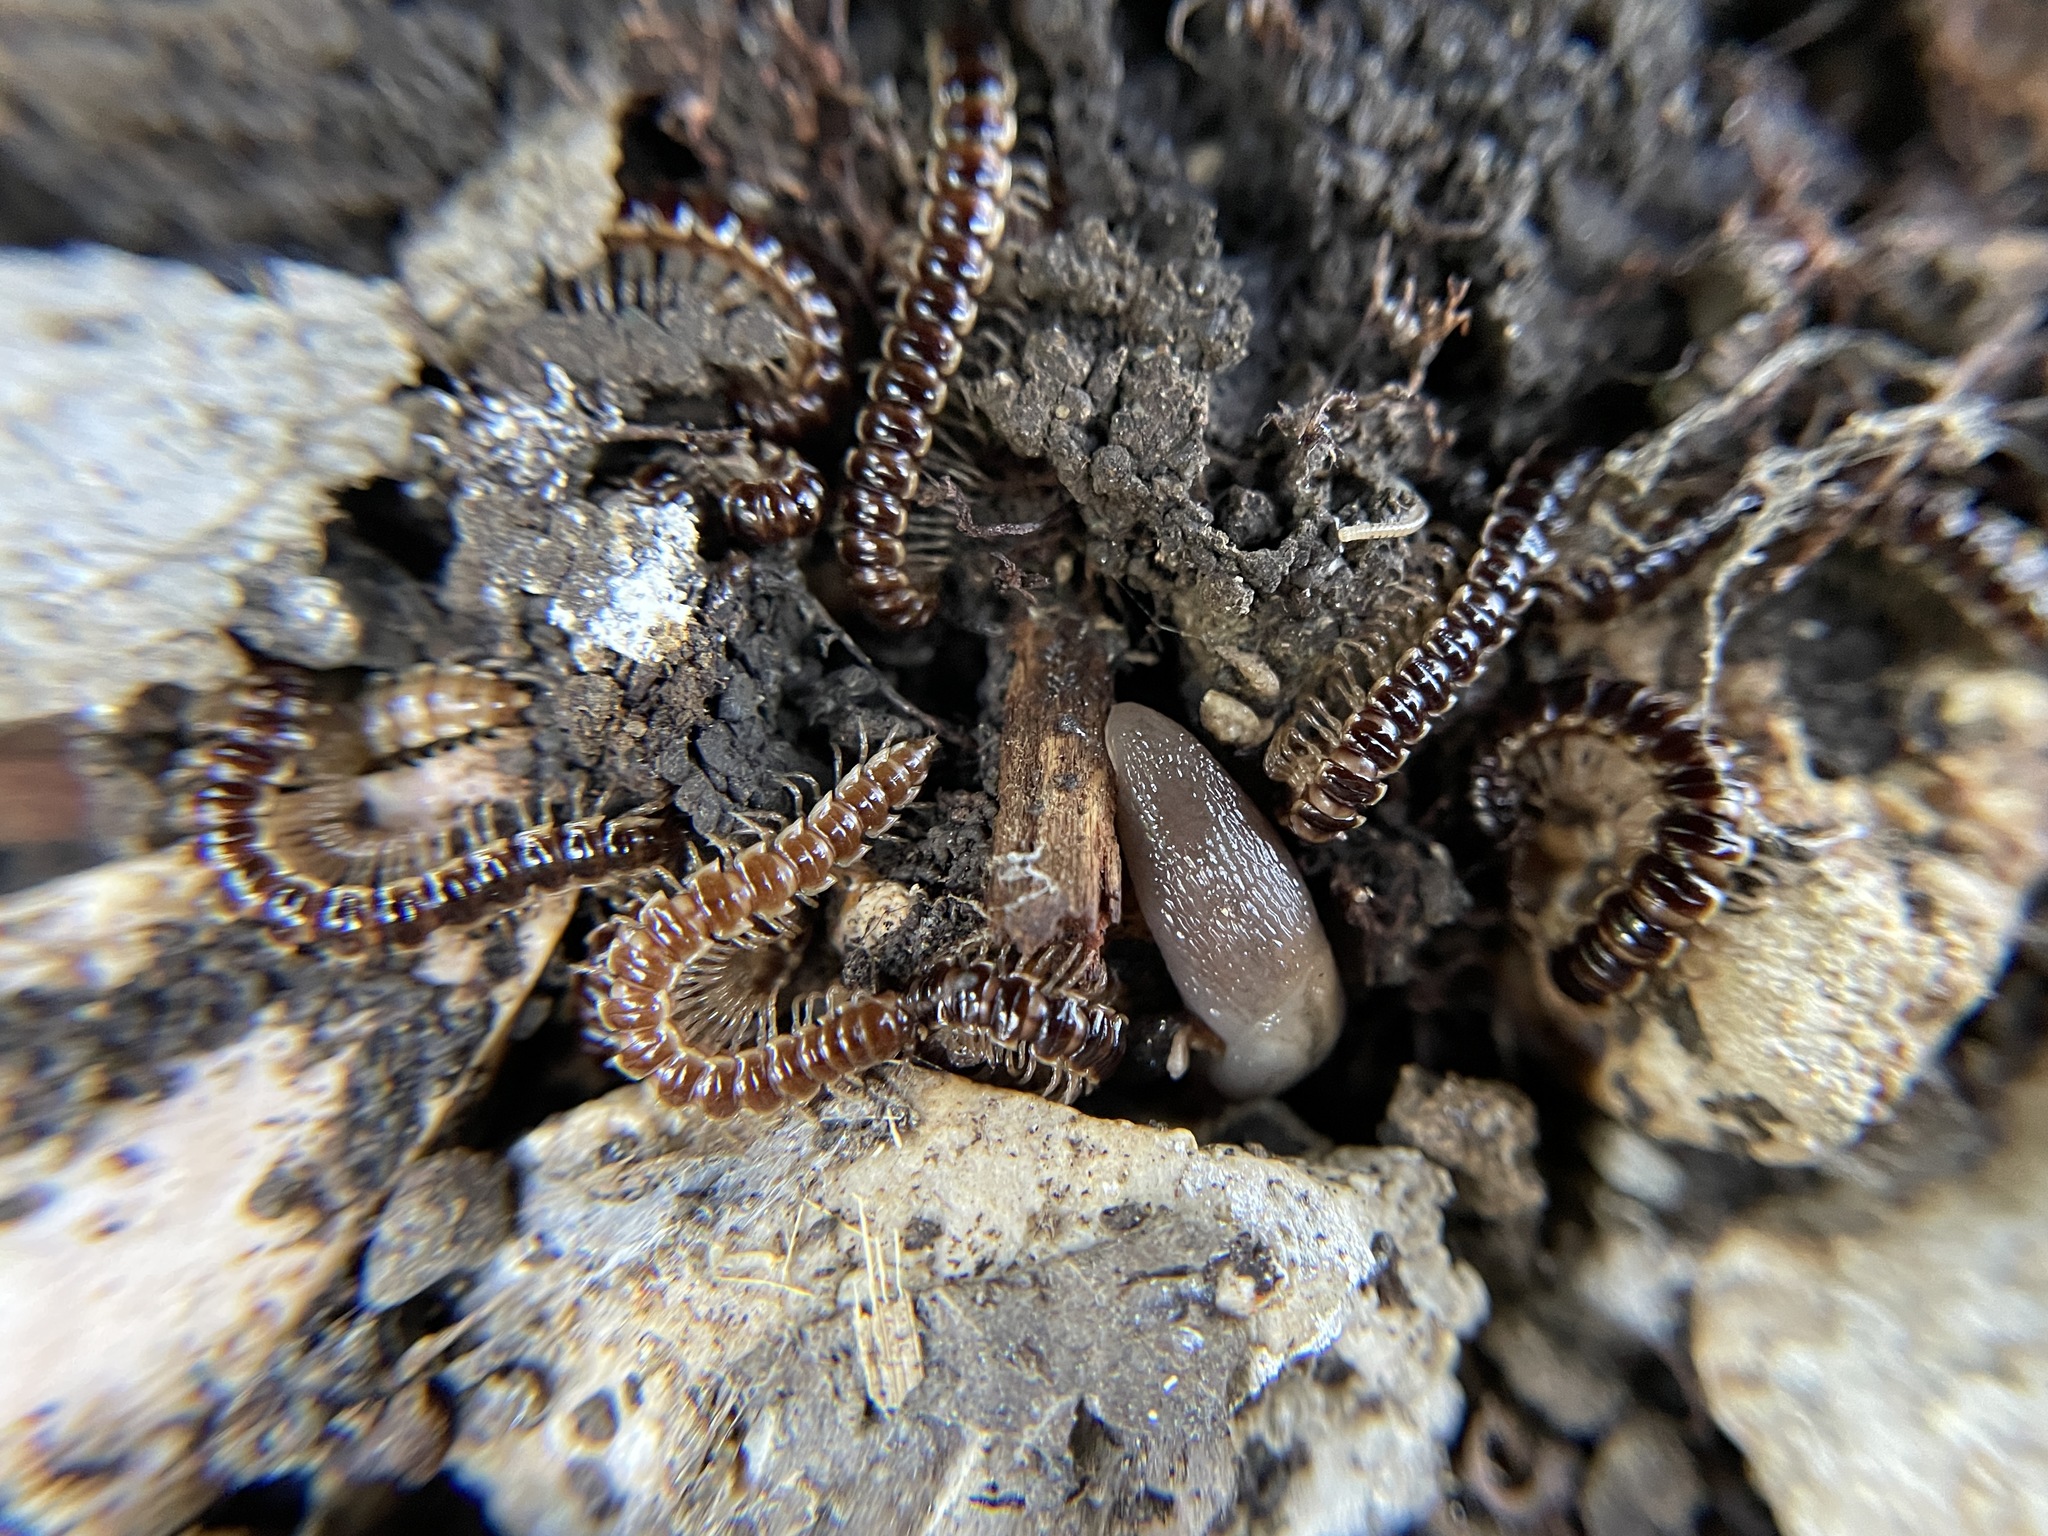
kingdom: Animalia
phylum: Arthropoda
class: Diplopoda
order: Polydesmida
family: Paradoxosomatidae
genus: Oxidus
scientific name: Oxidus gracilis
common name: Greenhouse millipede
